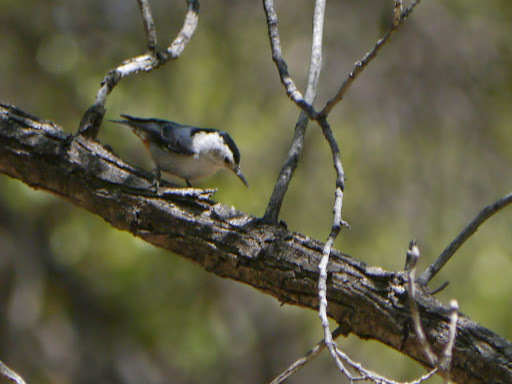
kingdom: Animalia
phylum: Chordata
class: Aves
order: Passeriformes
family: Sittidae
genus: Sitta
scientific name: Sitta carolinensis
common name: White-breasted nuthatch
